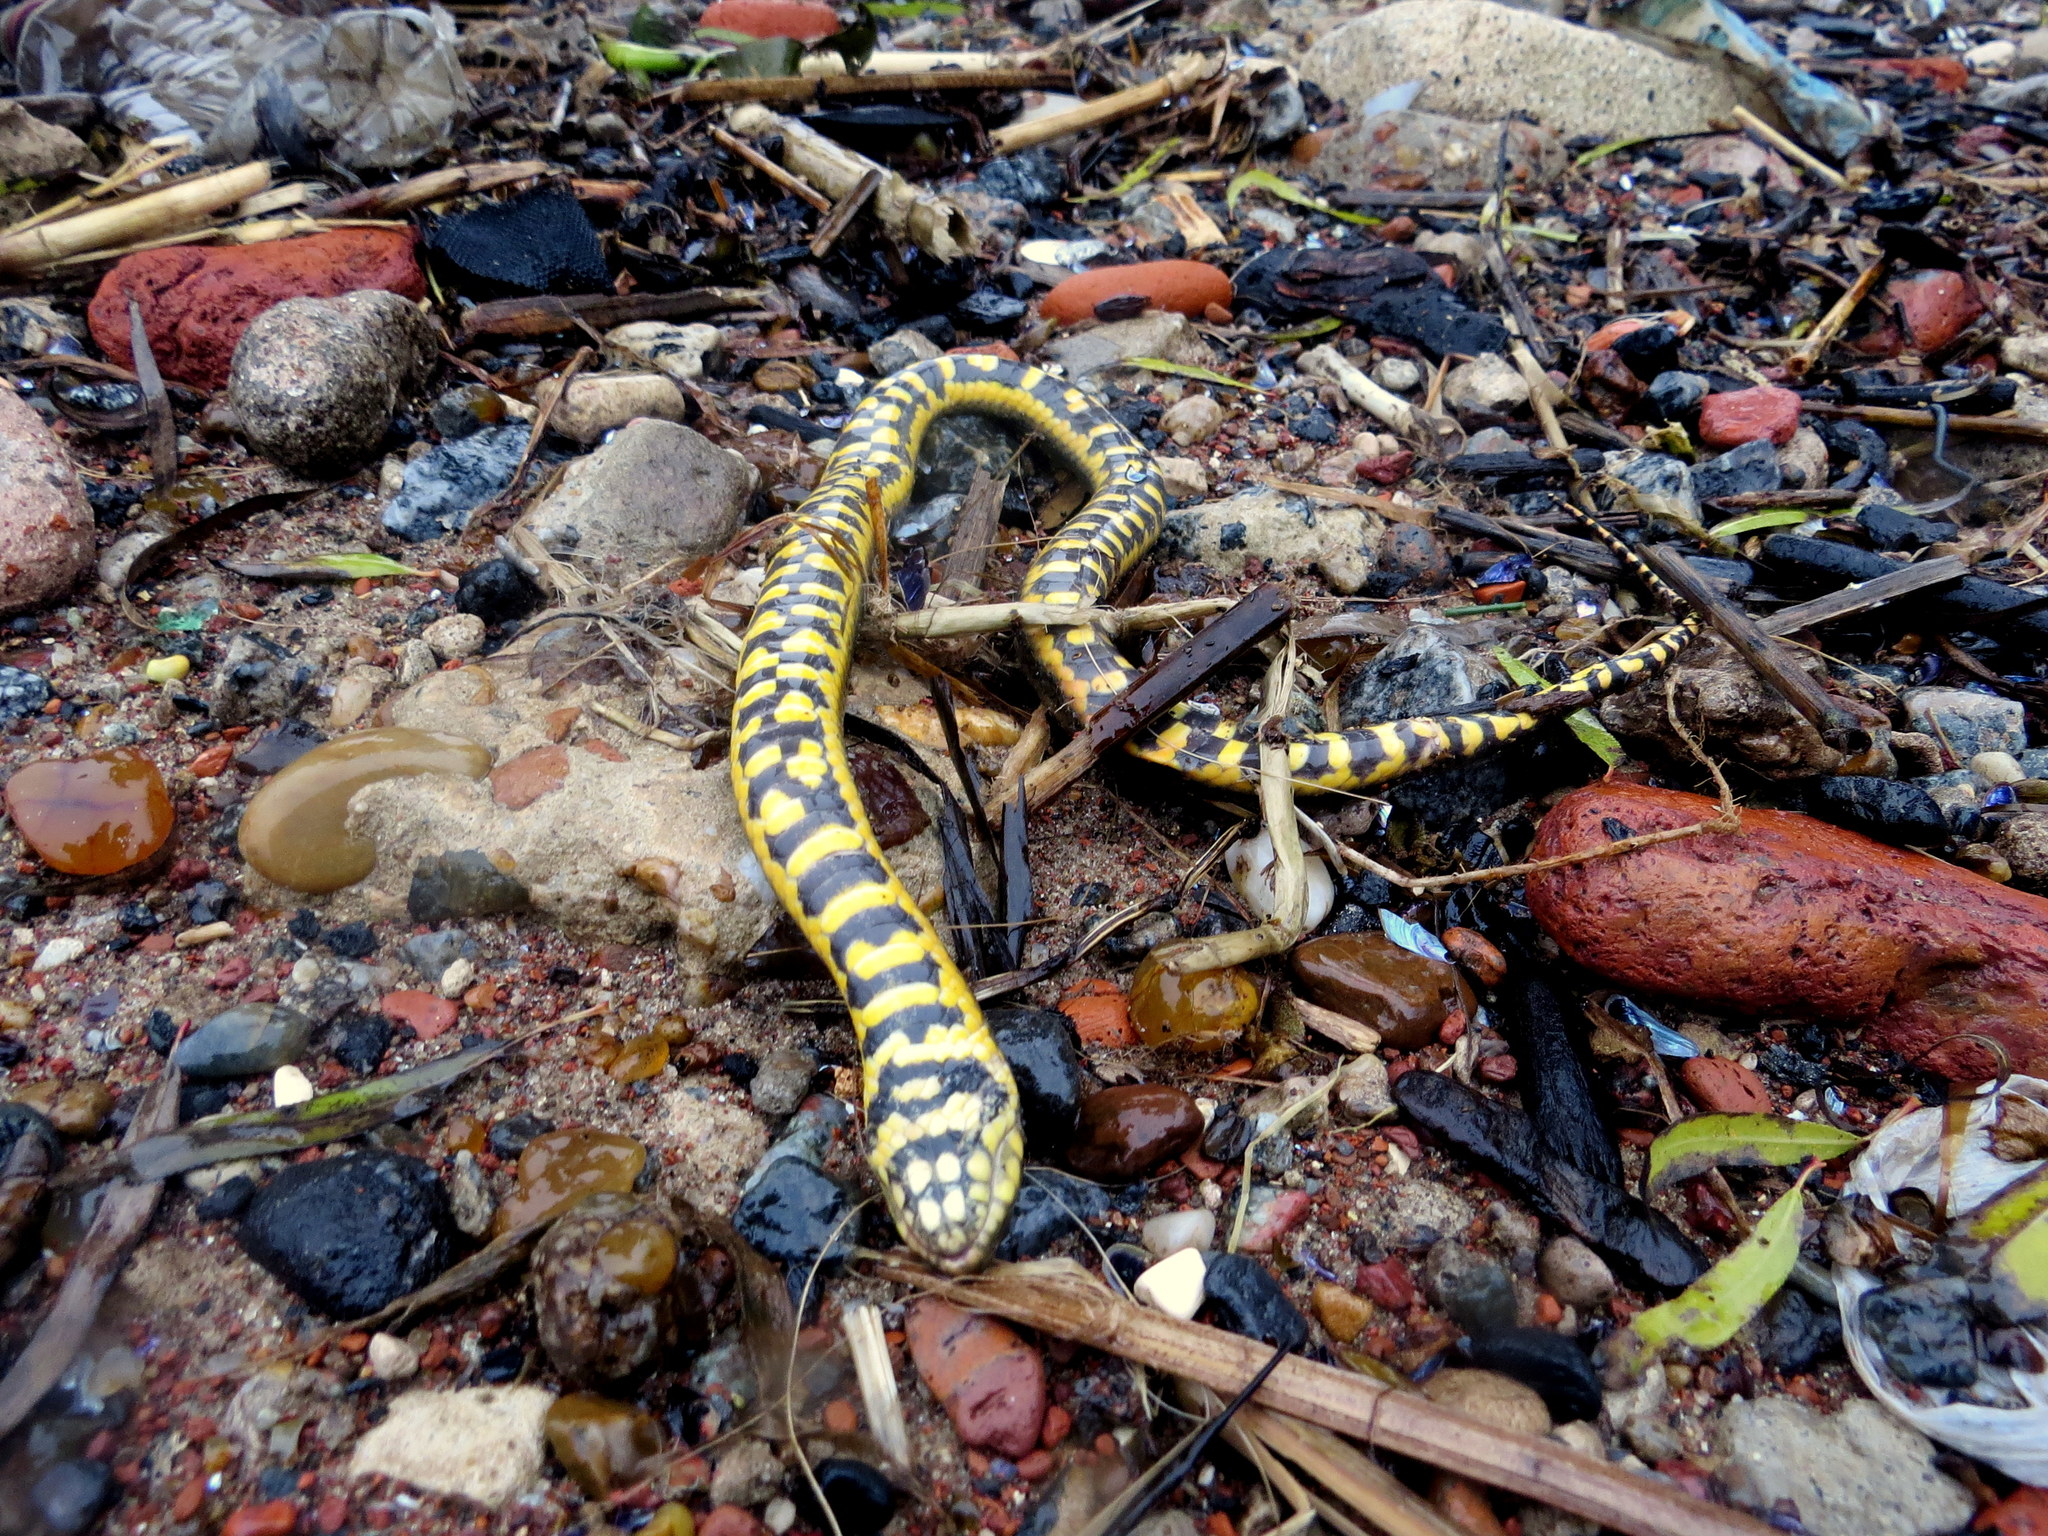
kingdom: Animalia
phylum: Chordata
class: Squamata
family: Colubridae
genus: Erythrolamprus
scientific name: Erythrolamprus poecilogyrus
